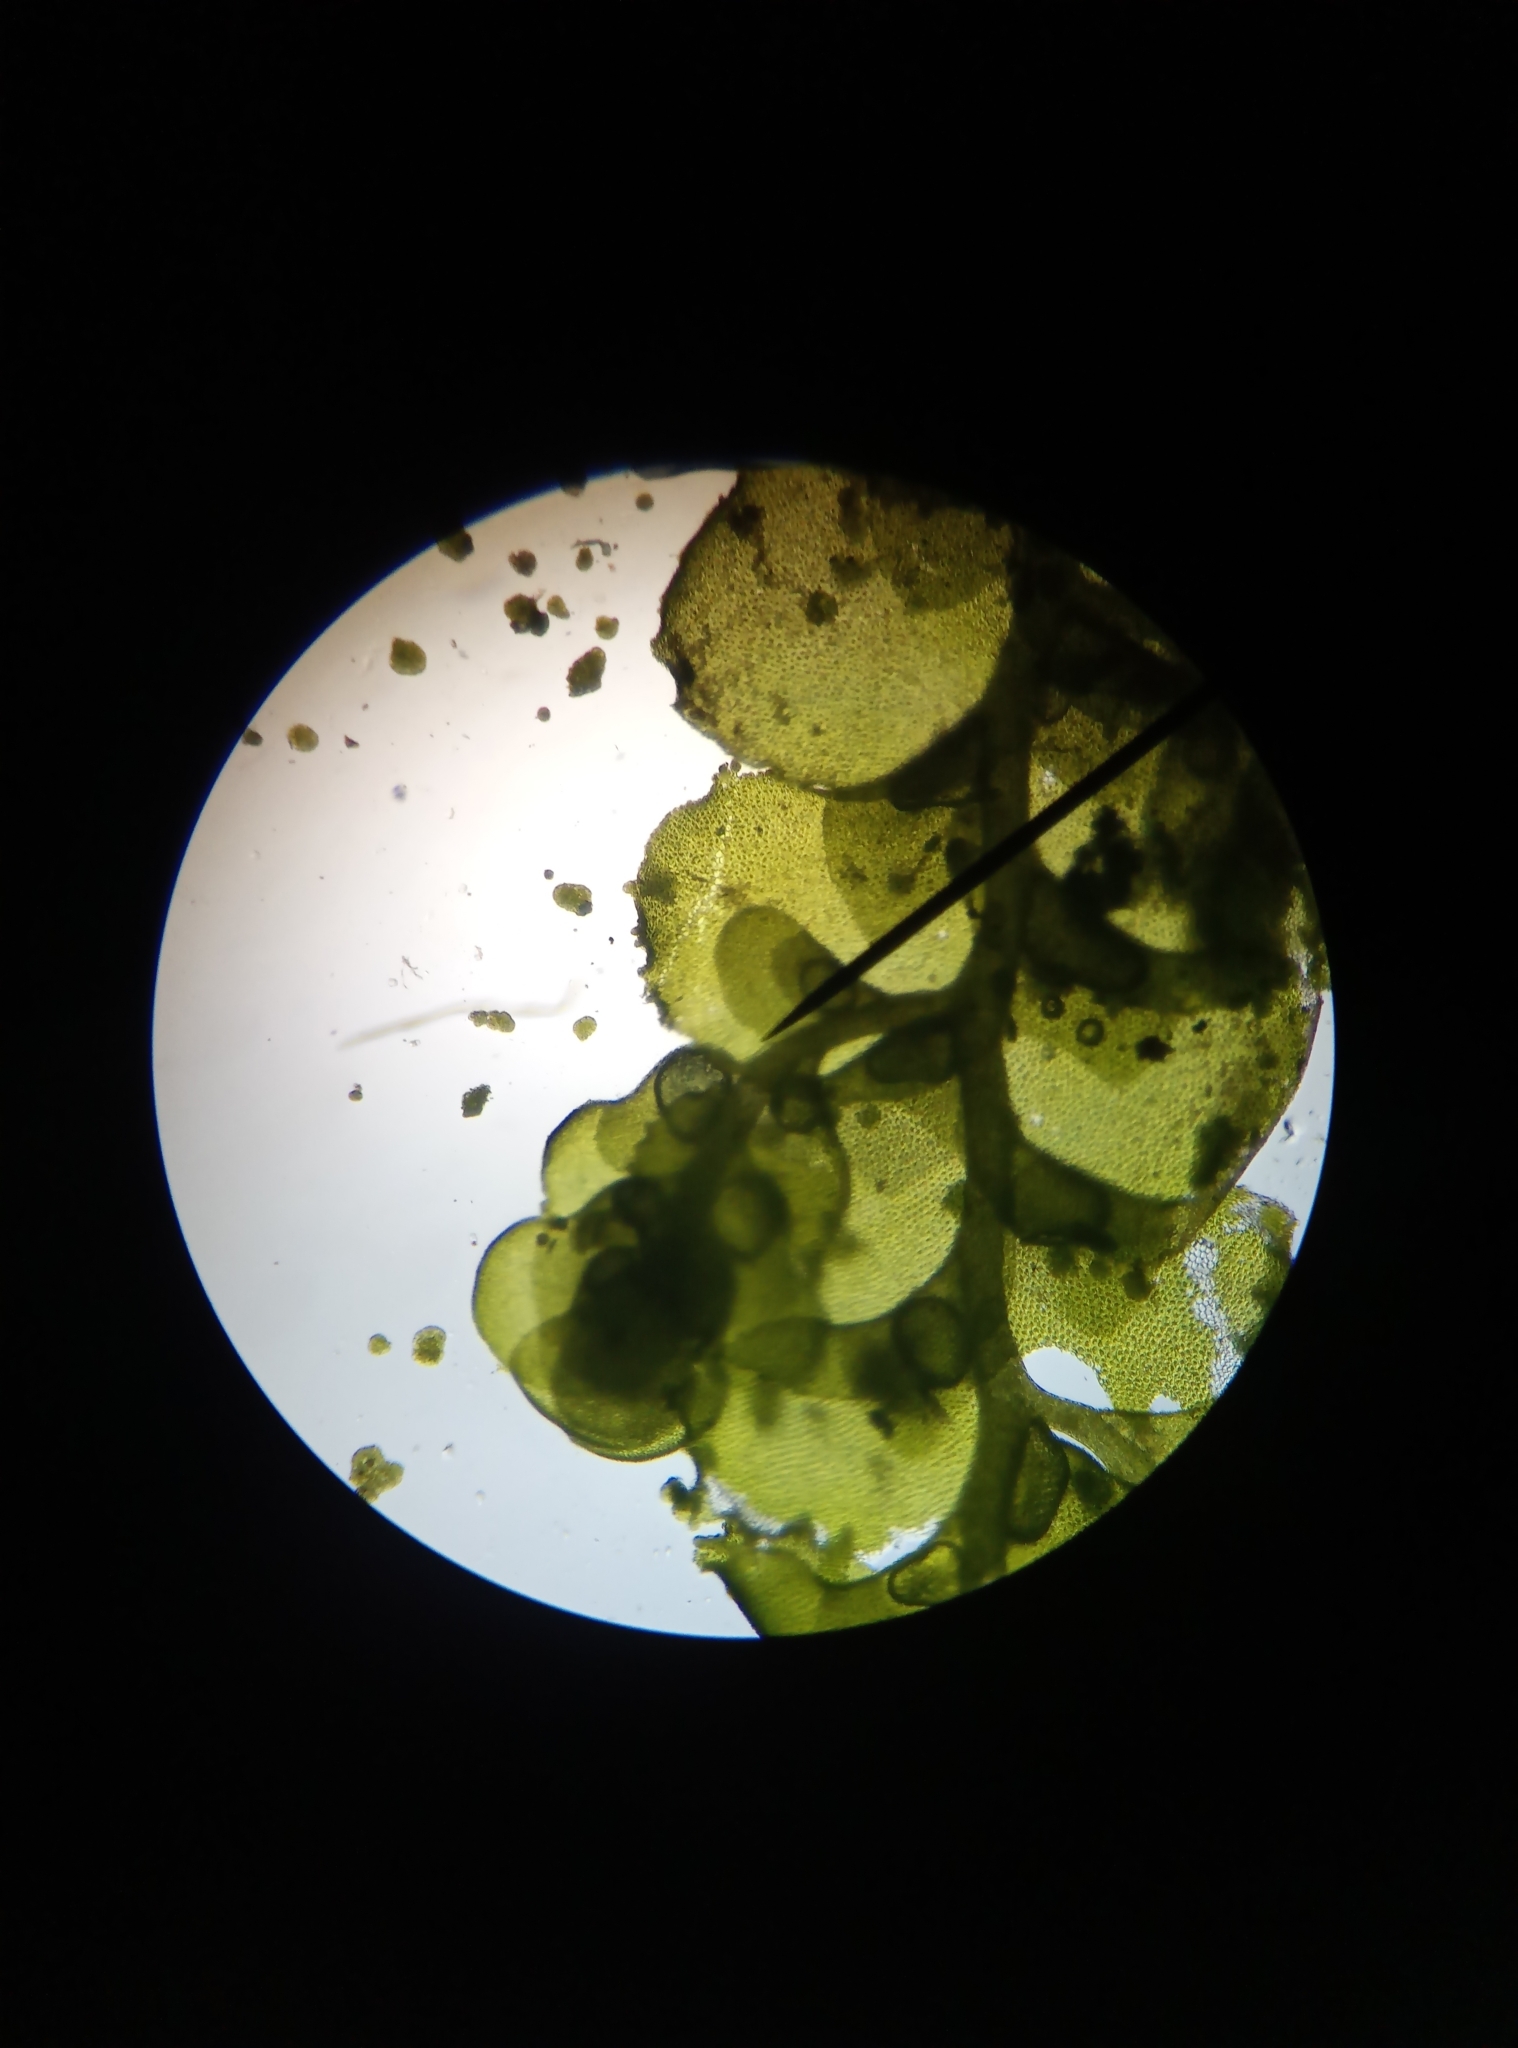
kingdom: Plantae
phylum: Marchantiophyta
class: Jungermanniopsida
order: Porellales
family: Radulaceae
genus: Radula
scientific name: Radula complanata
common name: Flat-leaved scalewort
